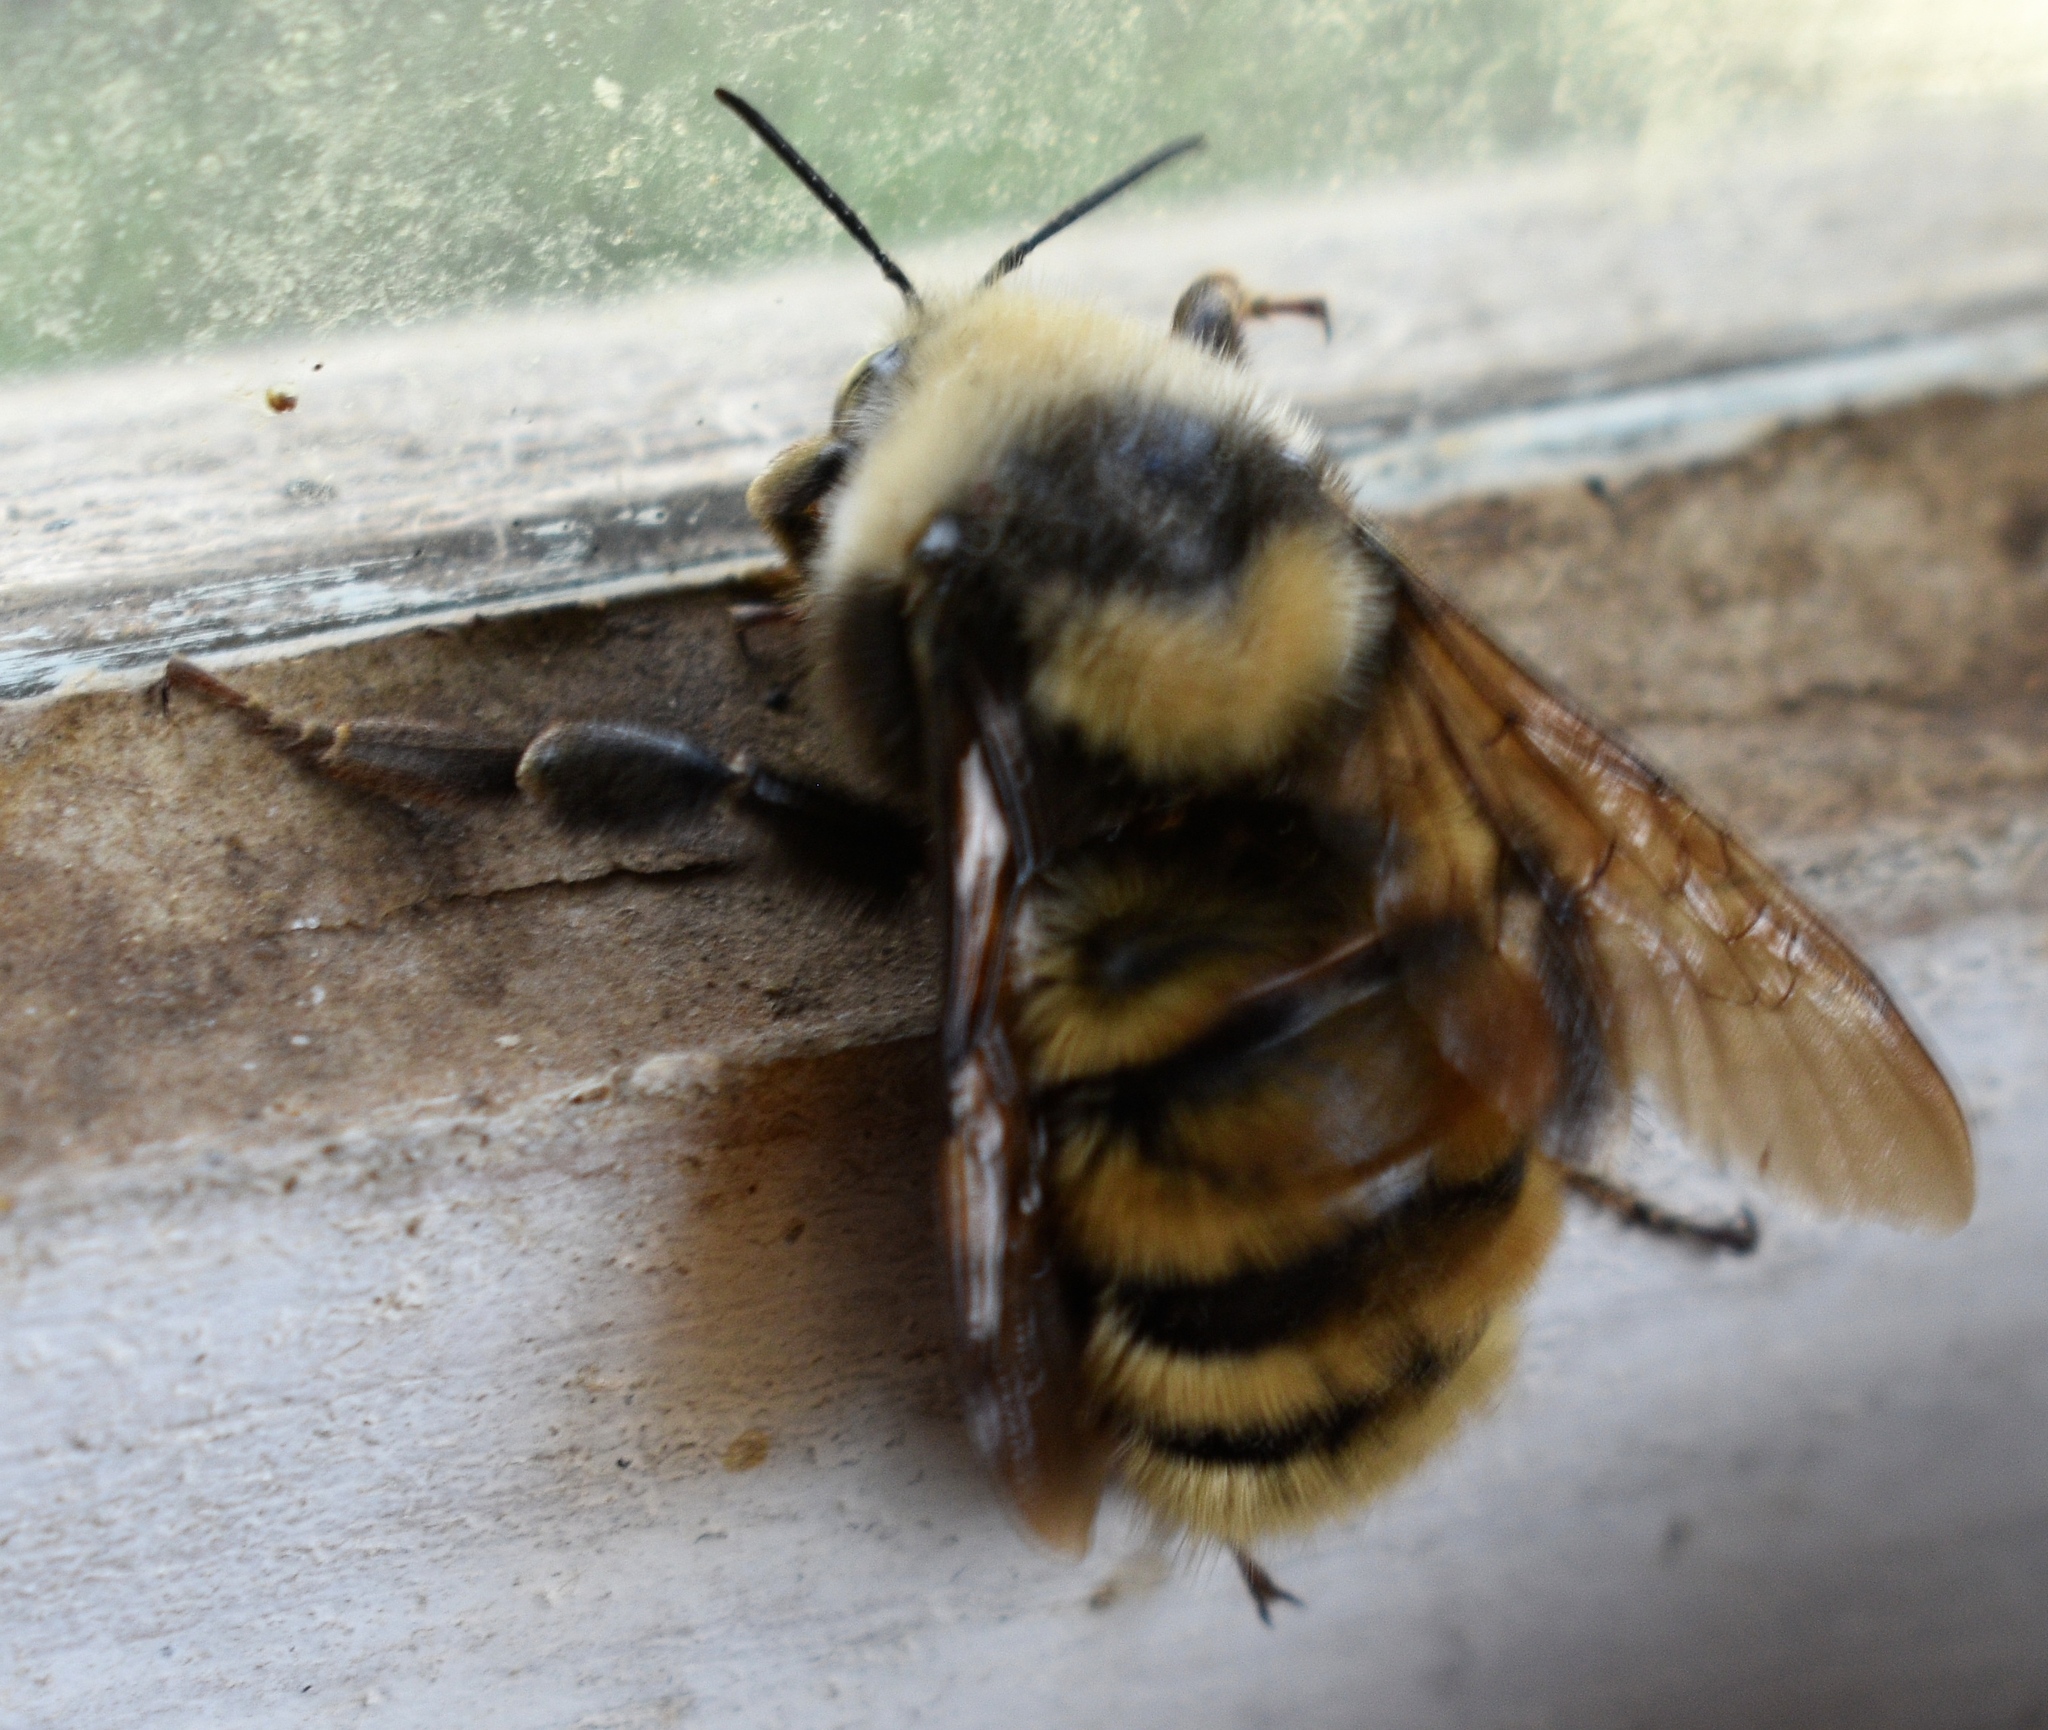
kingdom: Animalia
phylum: Arthropoda
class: Insecta
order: Hymenoptera
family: Apidae
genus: Bombus
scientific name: Bombus appositus
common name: White-shouldered bumble bee
